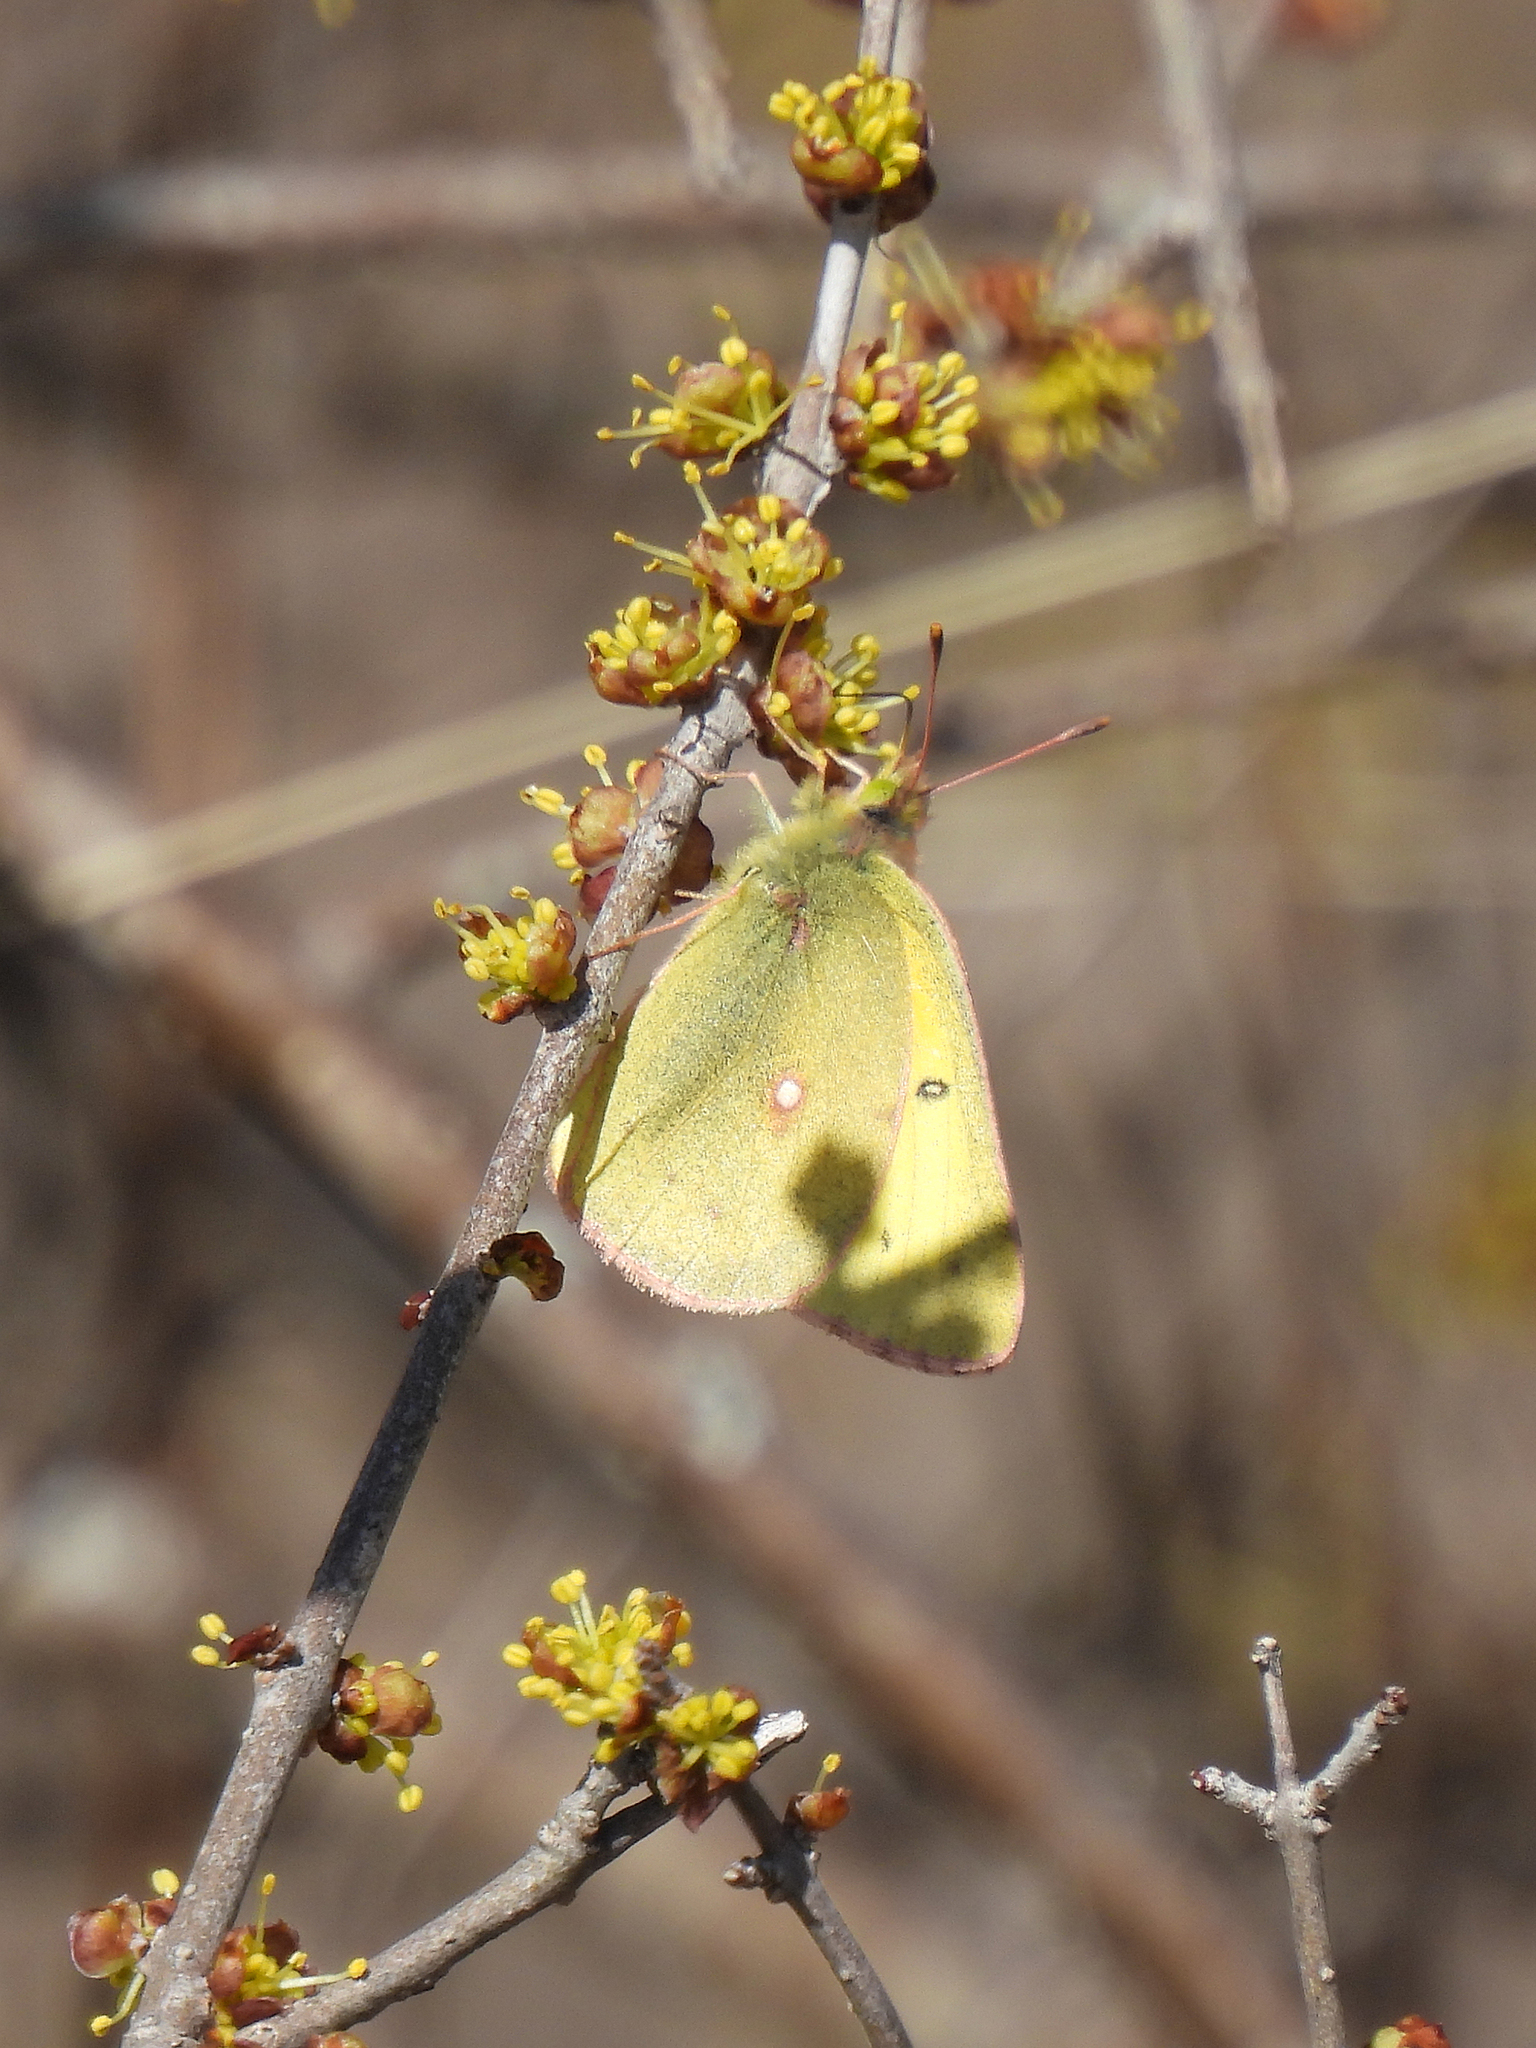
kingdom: Animalia
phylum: Arthropoda
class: Insecta
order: Lepidoptera
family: Pieridae
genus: Colias
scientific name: Colias eurytheme
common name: Alfalfa butterfly
